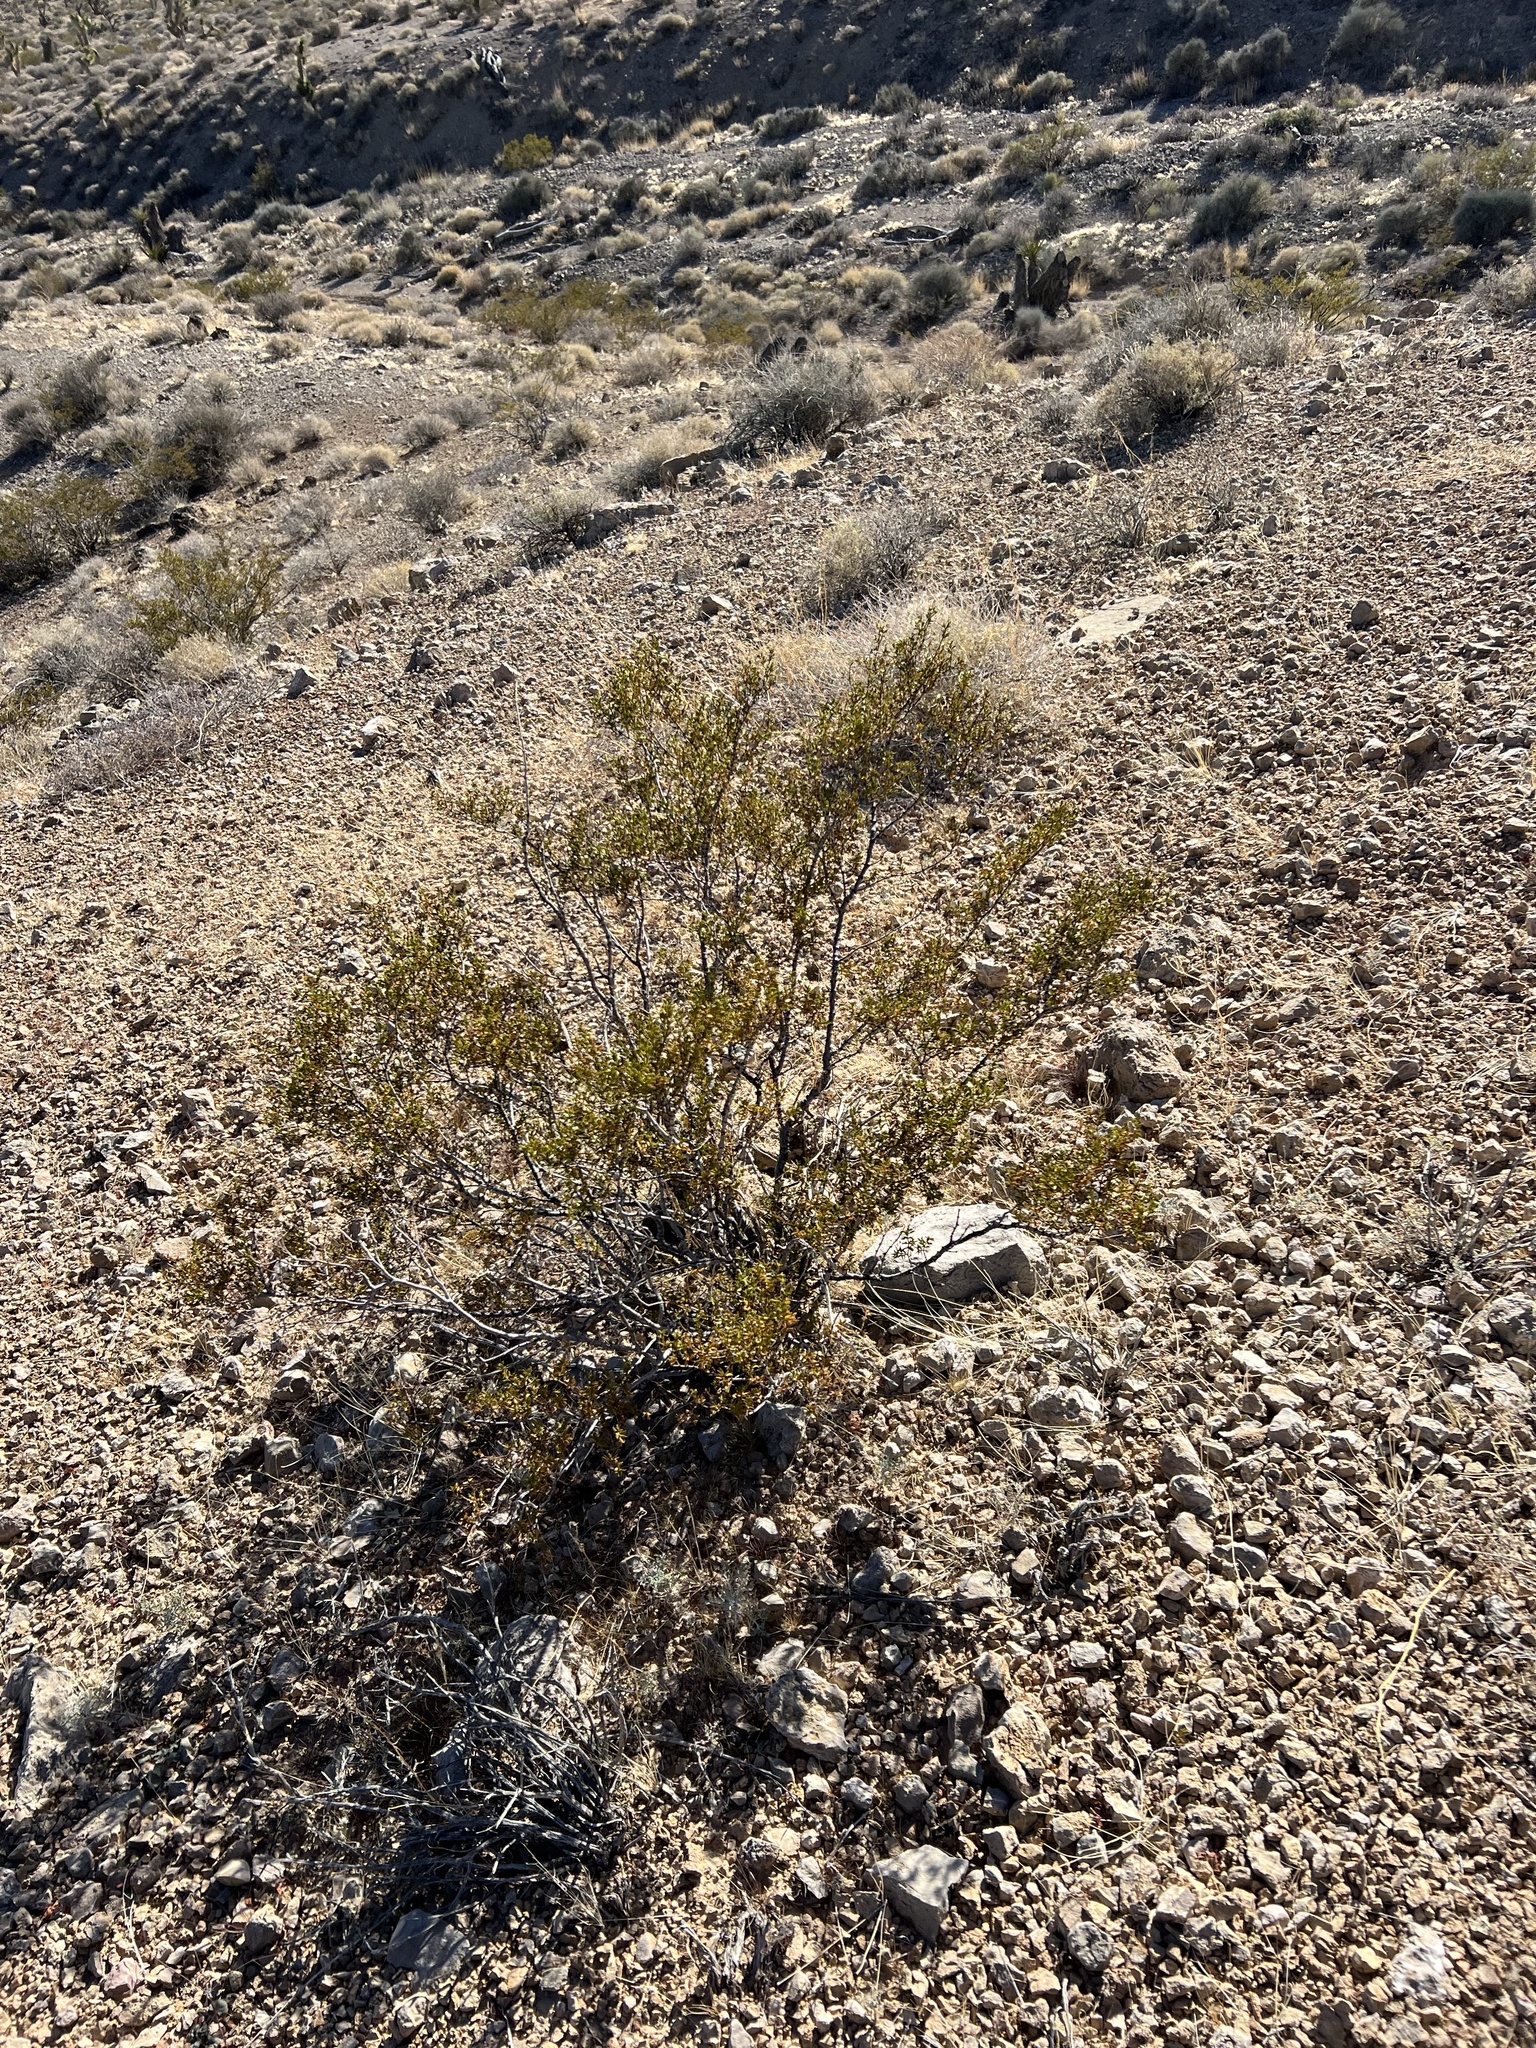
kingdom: Plantae
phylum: Tracheophyta
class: Magnoliopsida
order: Zygophyllales
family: Zygophyllaceae
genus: Larrea
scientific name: Larrea tridentata
